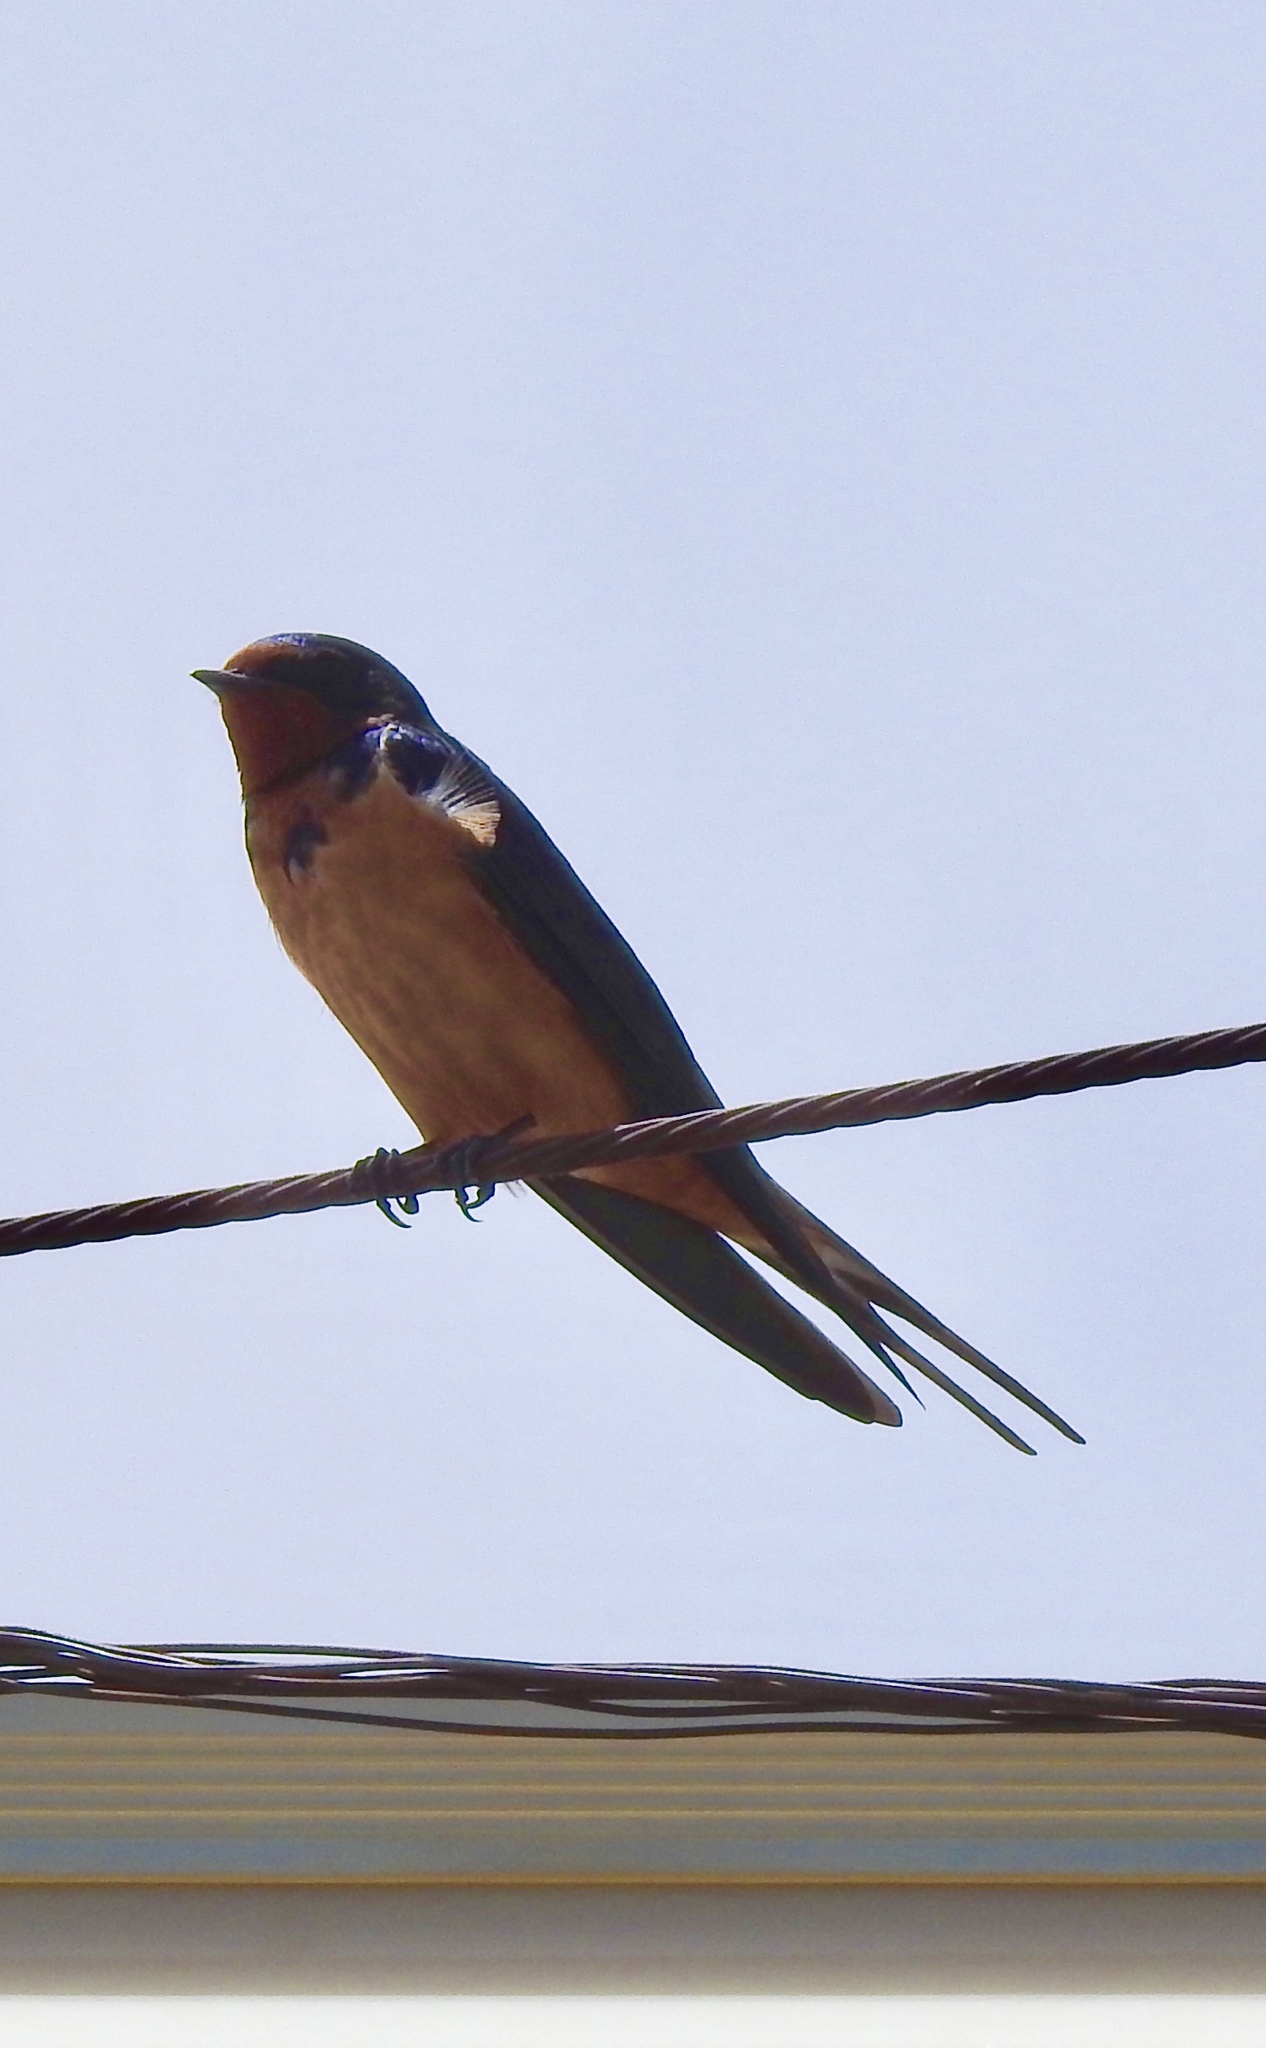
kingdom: Animalia
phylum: Chordata
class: Aves
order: Passeriformes
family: Hirundinidae
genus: Hirundo
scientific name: Hirundo rustica
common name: Barn swallow
